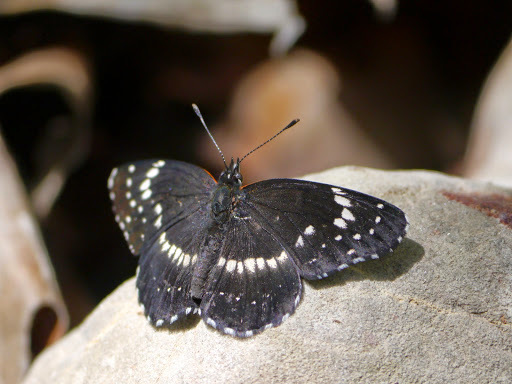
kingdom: Animalia
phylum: Arthropoda
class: Insecta
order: Lepidoptera
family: Nymphalidae
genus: Chlosyne
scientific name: Chlosyne lacinia
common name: Bordered patch
